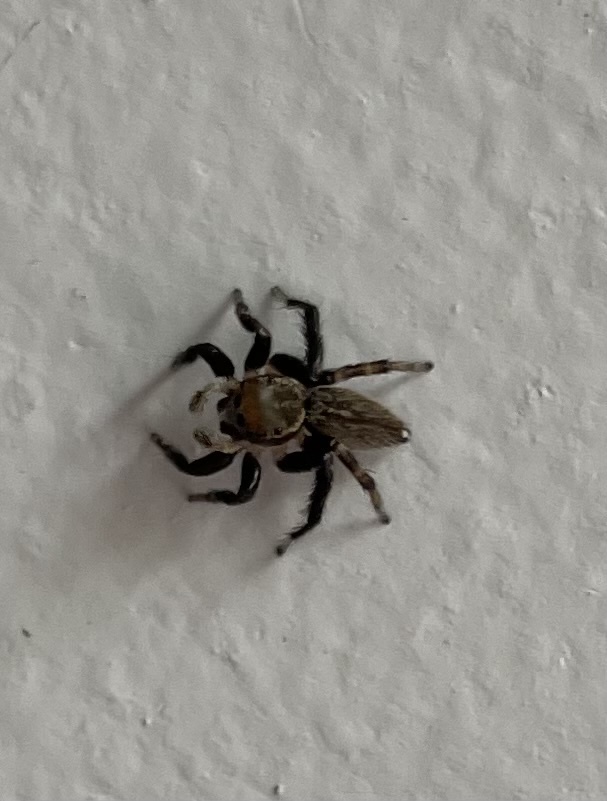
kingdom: Animalia
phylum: Arthropoda
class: Arachnida
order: Araneae
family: Salticidae
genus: Maratus
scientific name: Maratus griseus
